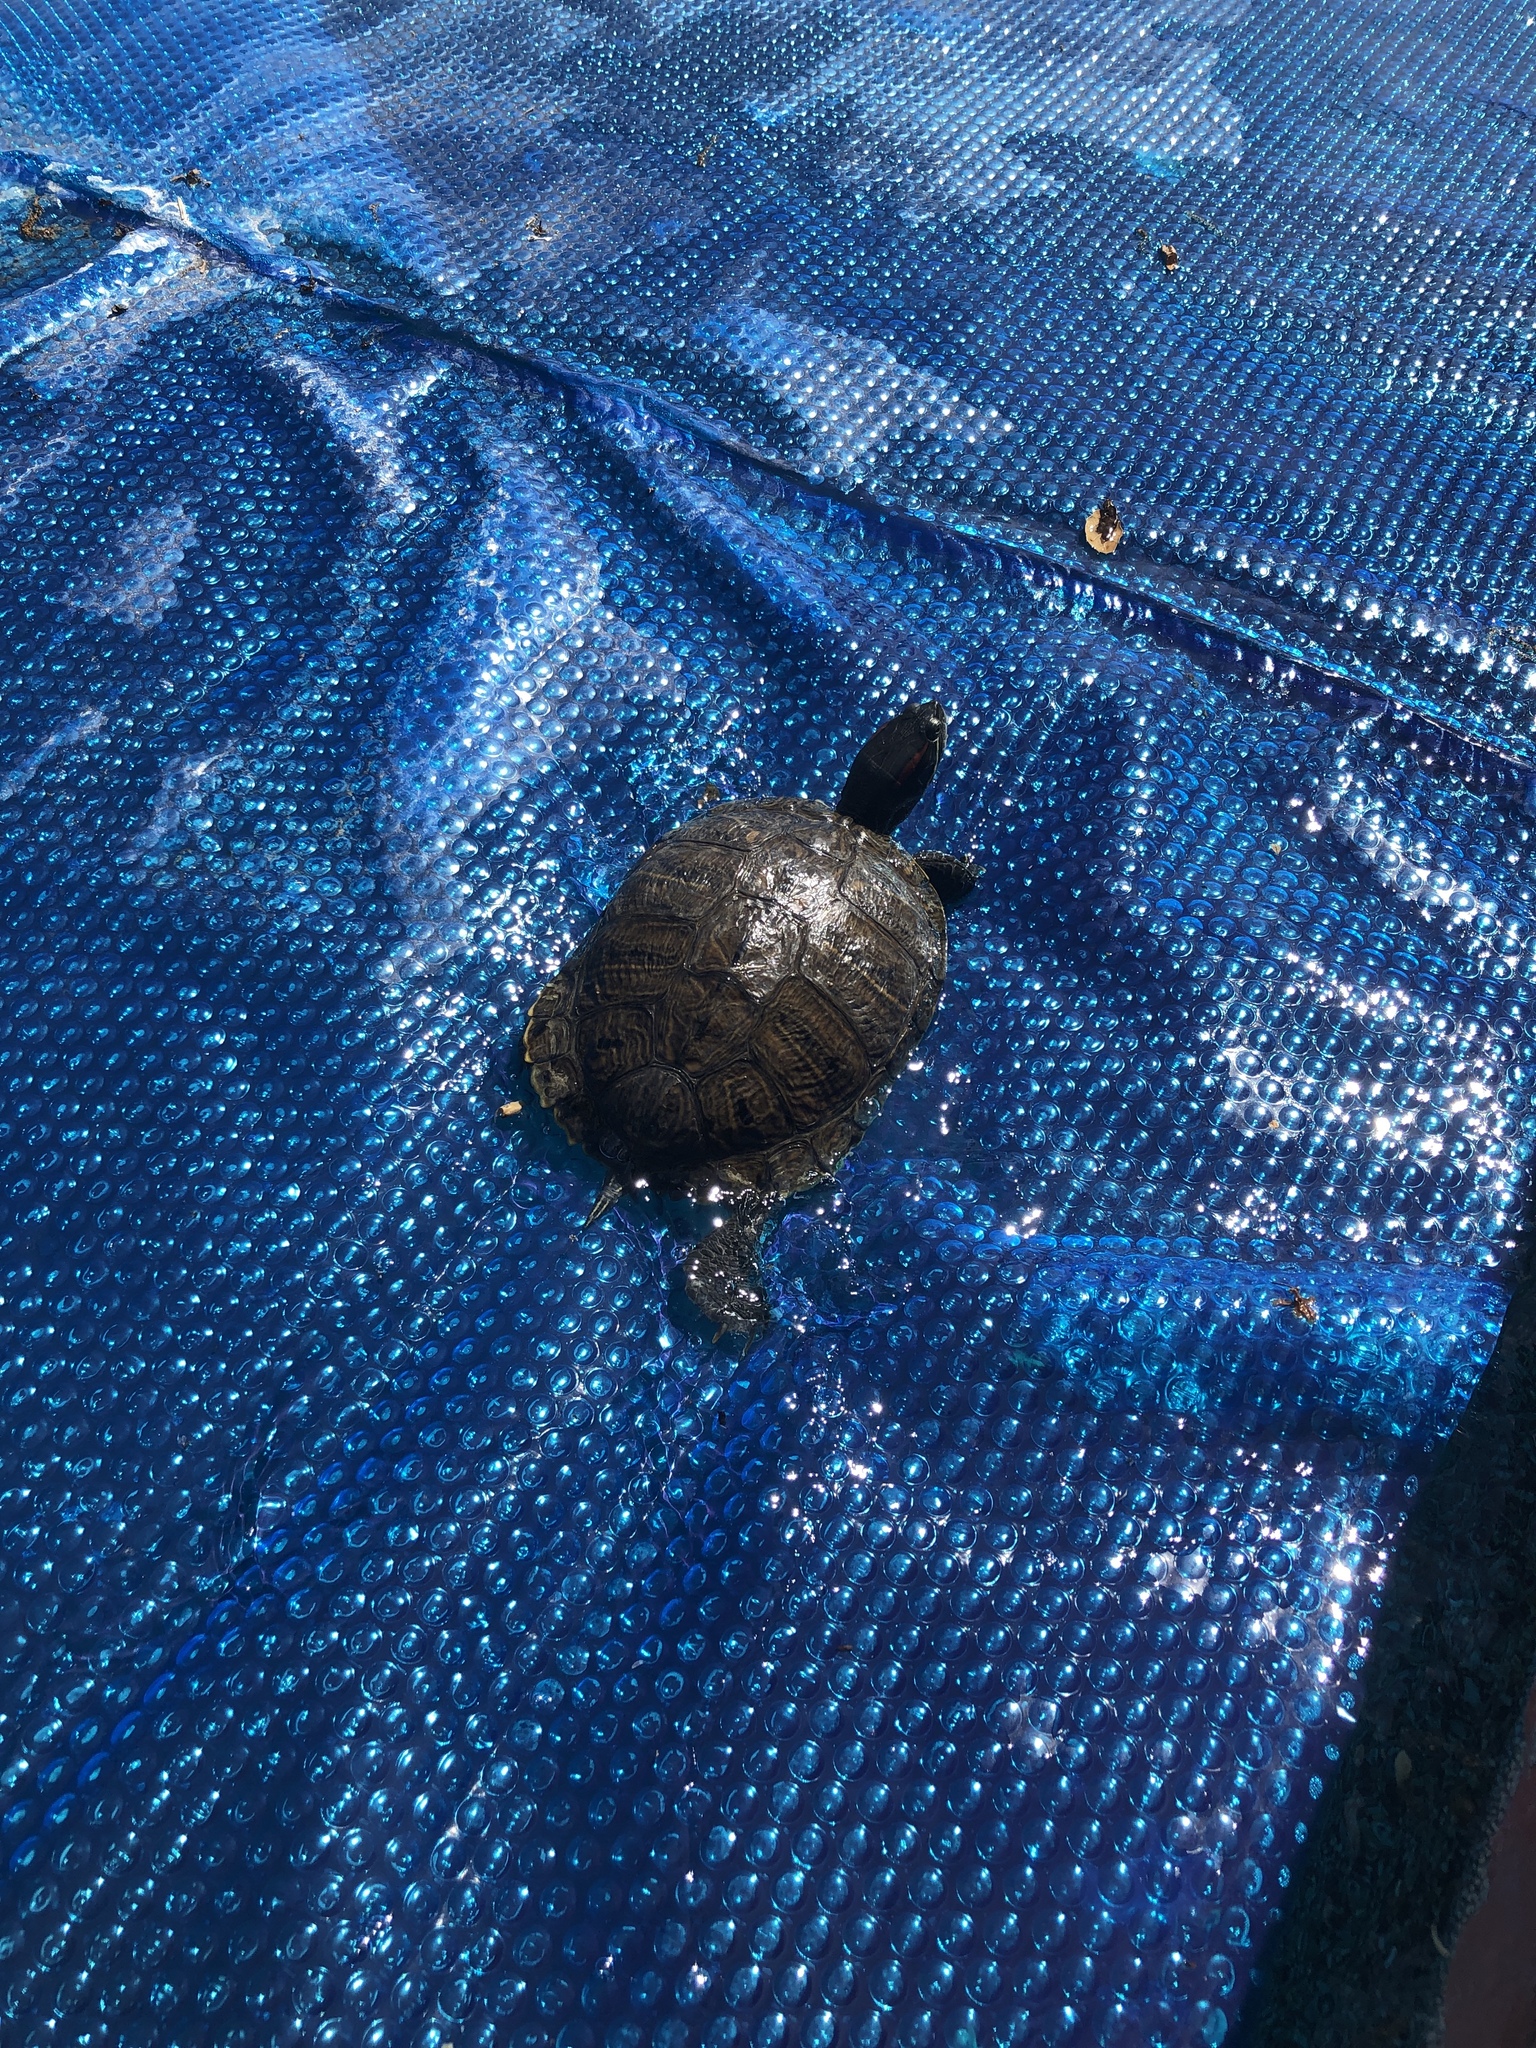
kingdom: Animalia
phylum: Chordata
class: Testudines
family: Emydidae
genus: Trachemys
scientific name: Trachemys scripta
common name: Slider
